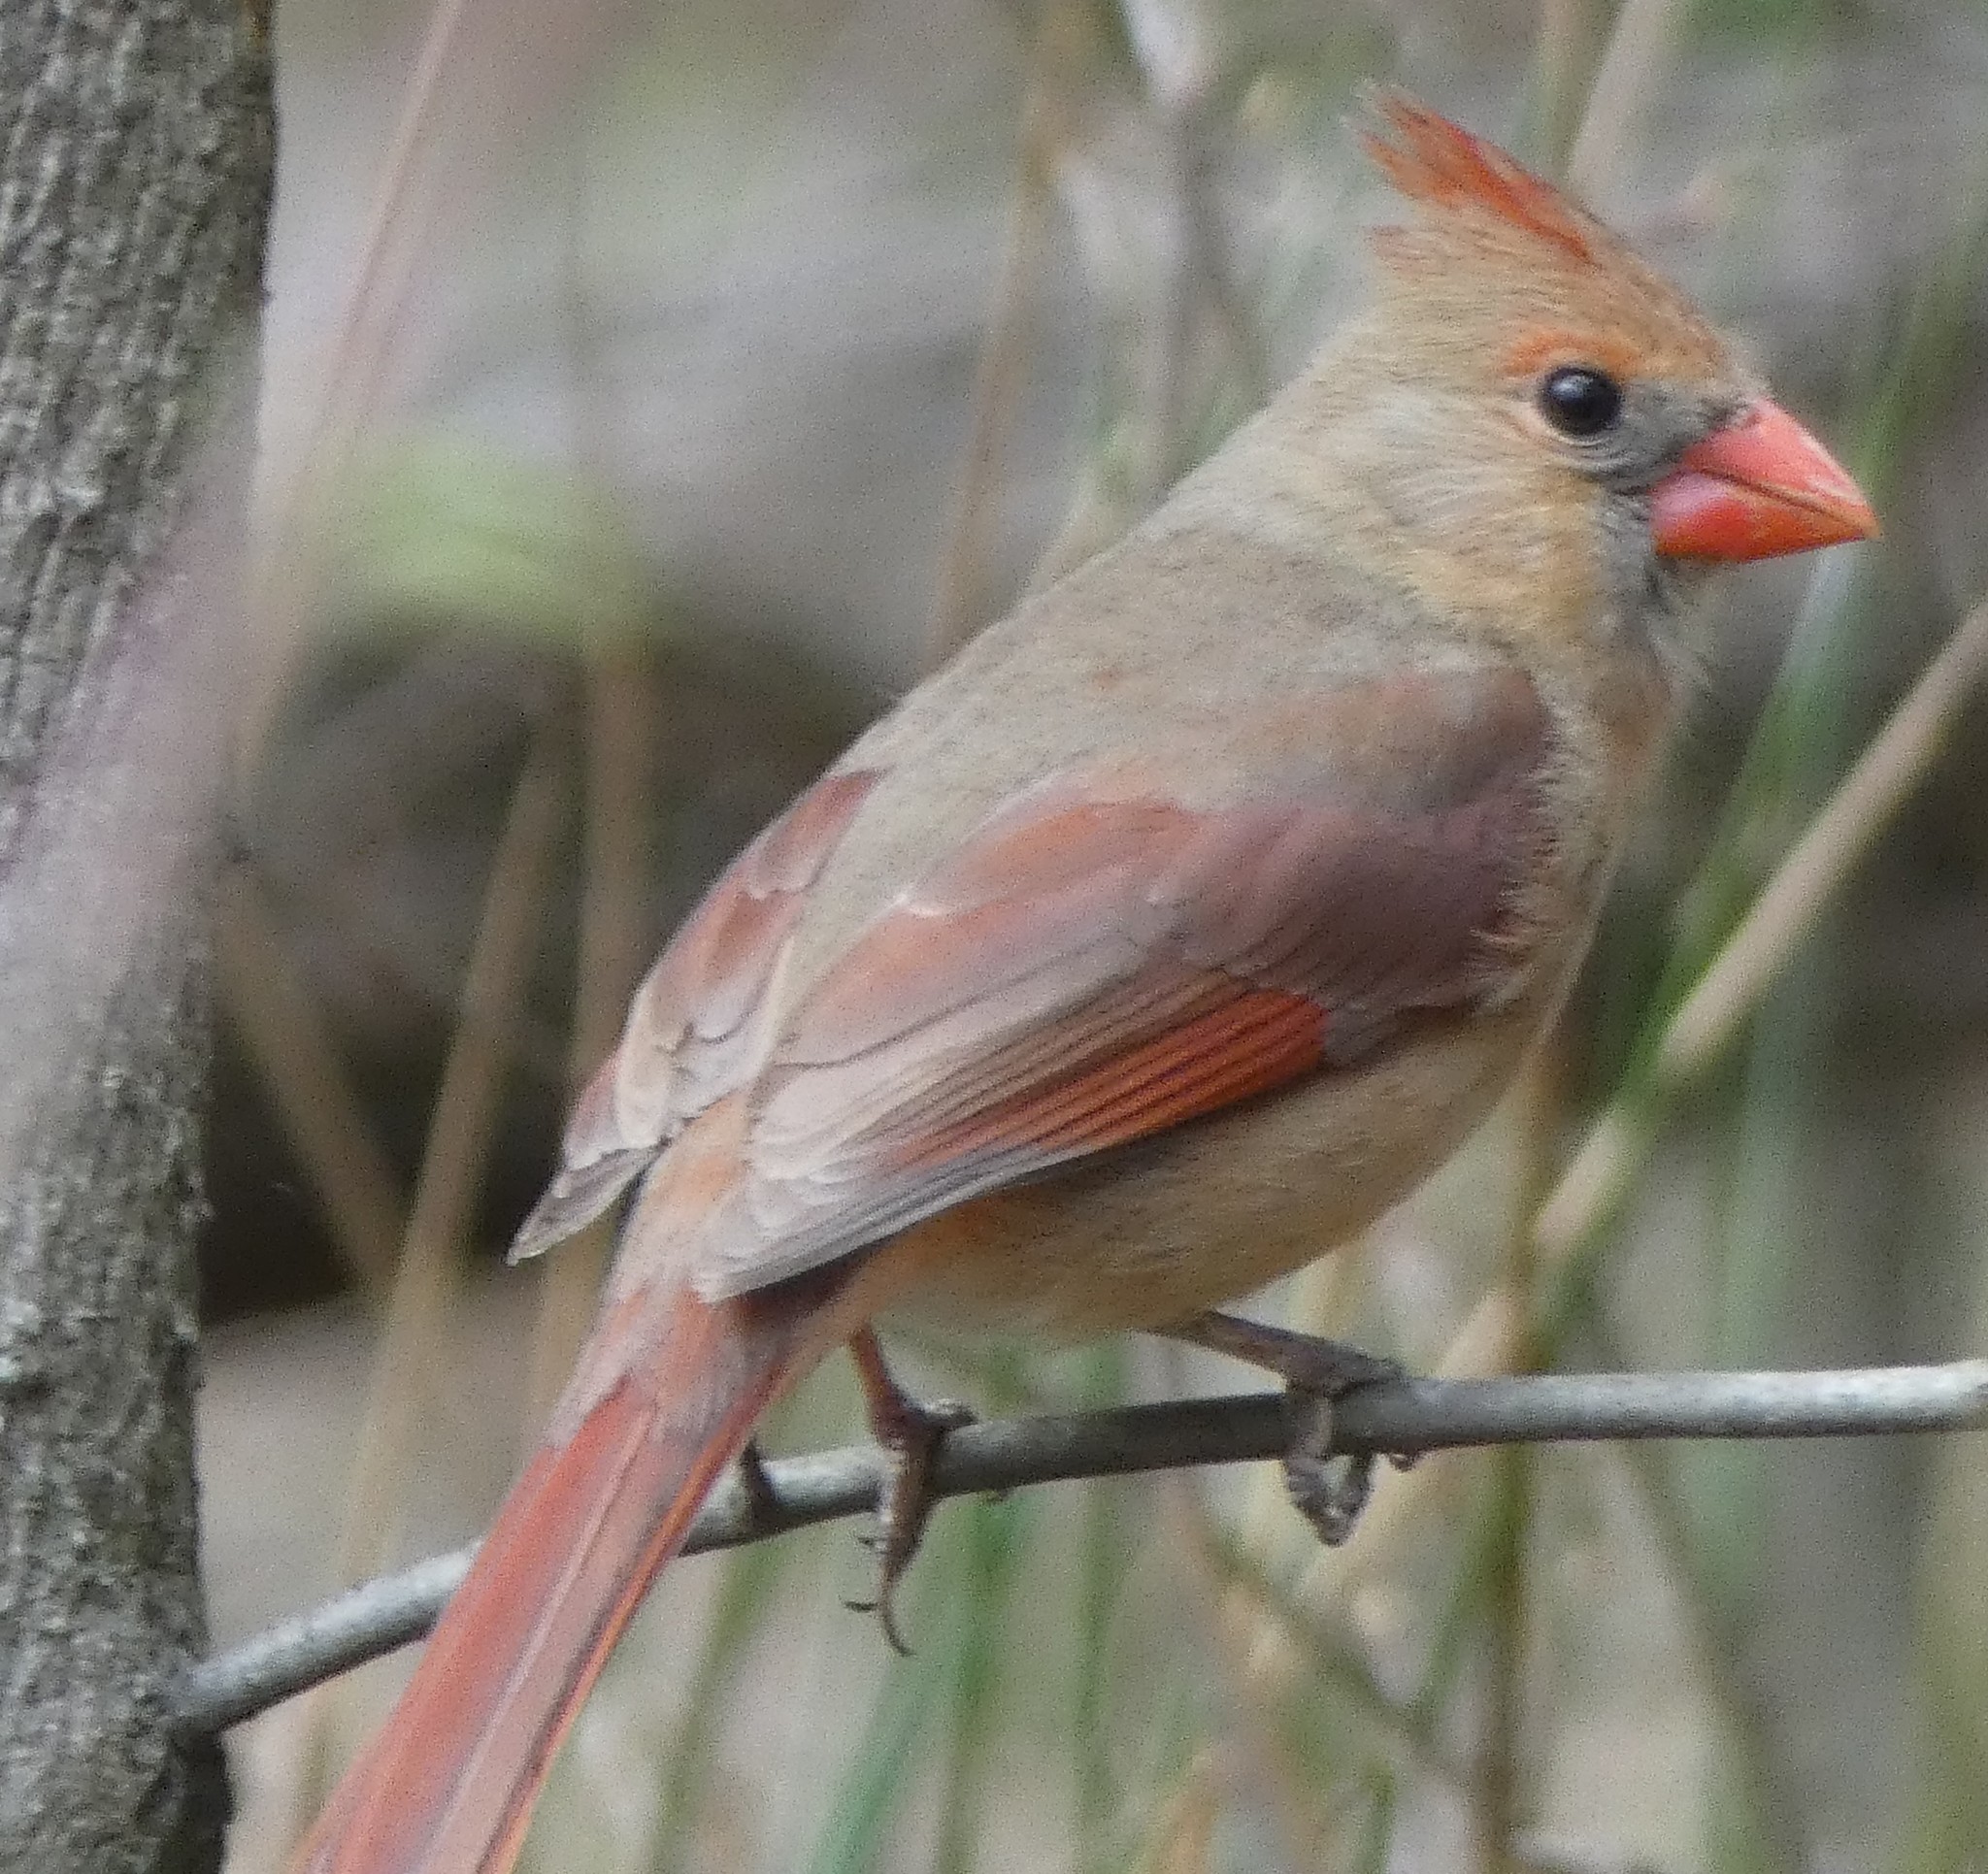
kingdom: Animalia
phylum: Chordata
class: Aves
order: Passeriformes
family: Cardinalidae
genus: Cardinalis
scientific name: Cardinalis cardinalis
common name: Northern cardinal
